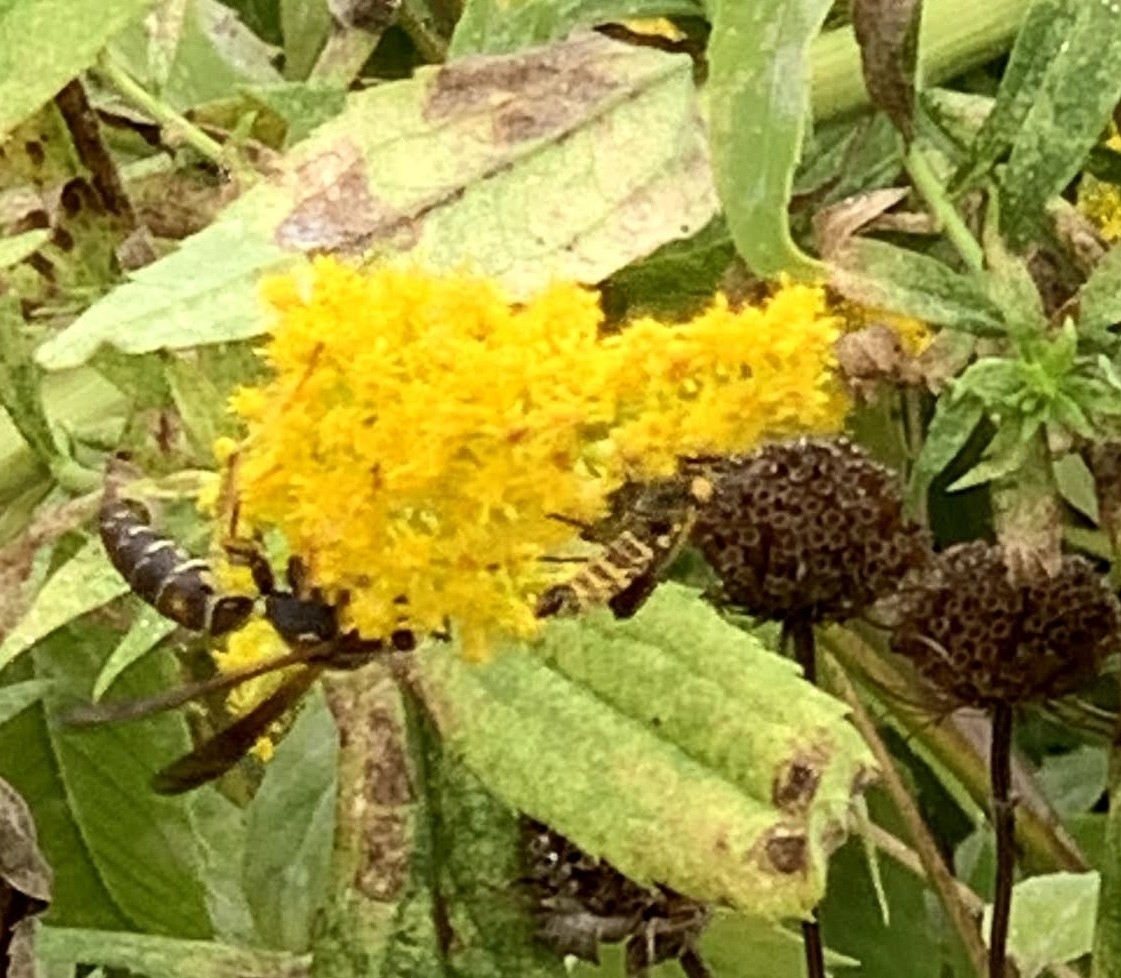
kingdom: Animalia
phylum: Arthropoda
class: Insecta
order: Coleoptera
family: Cantharidae
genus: Chauliognathus
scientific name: Chauliognathus pensylvanicus
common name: Goldenrod soldier beetle
